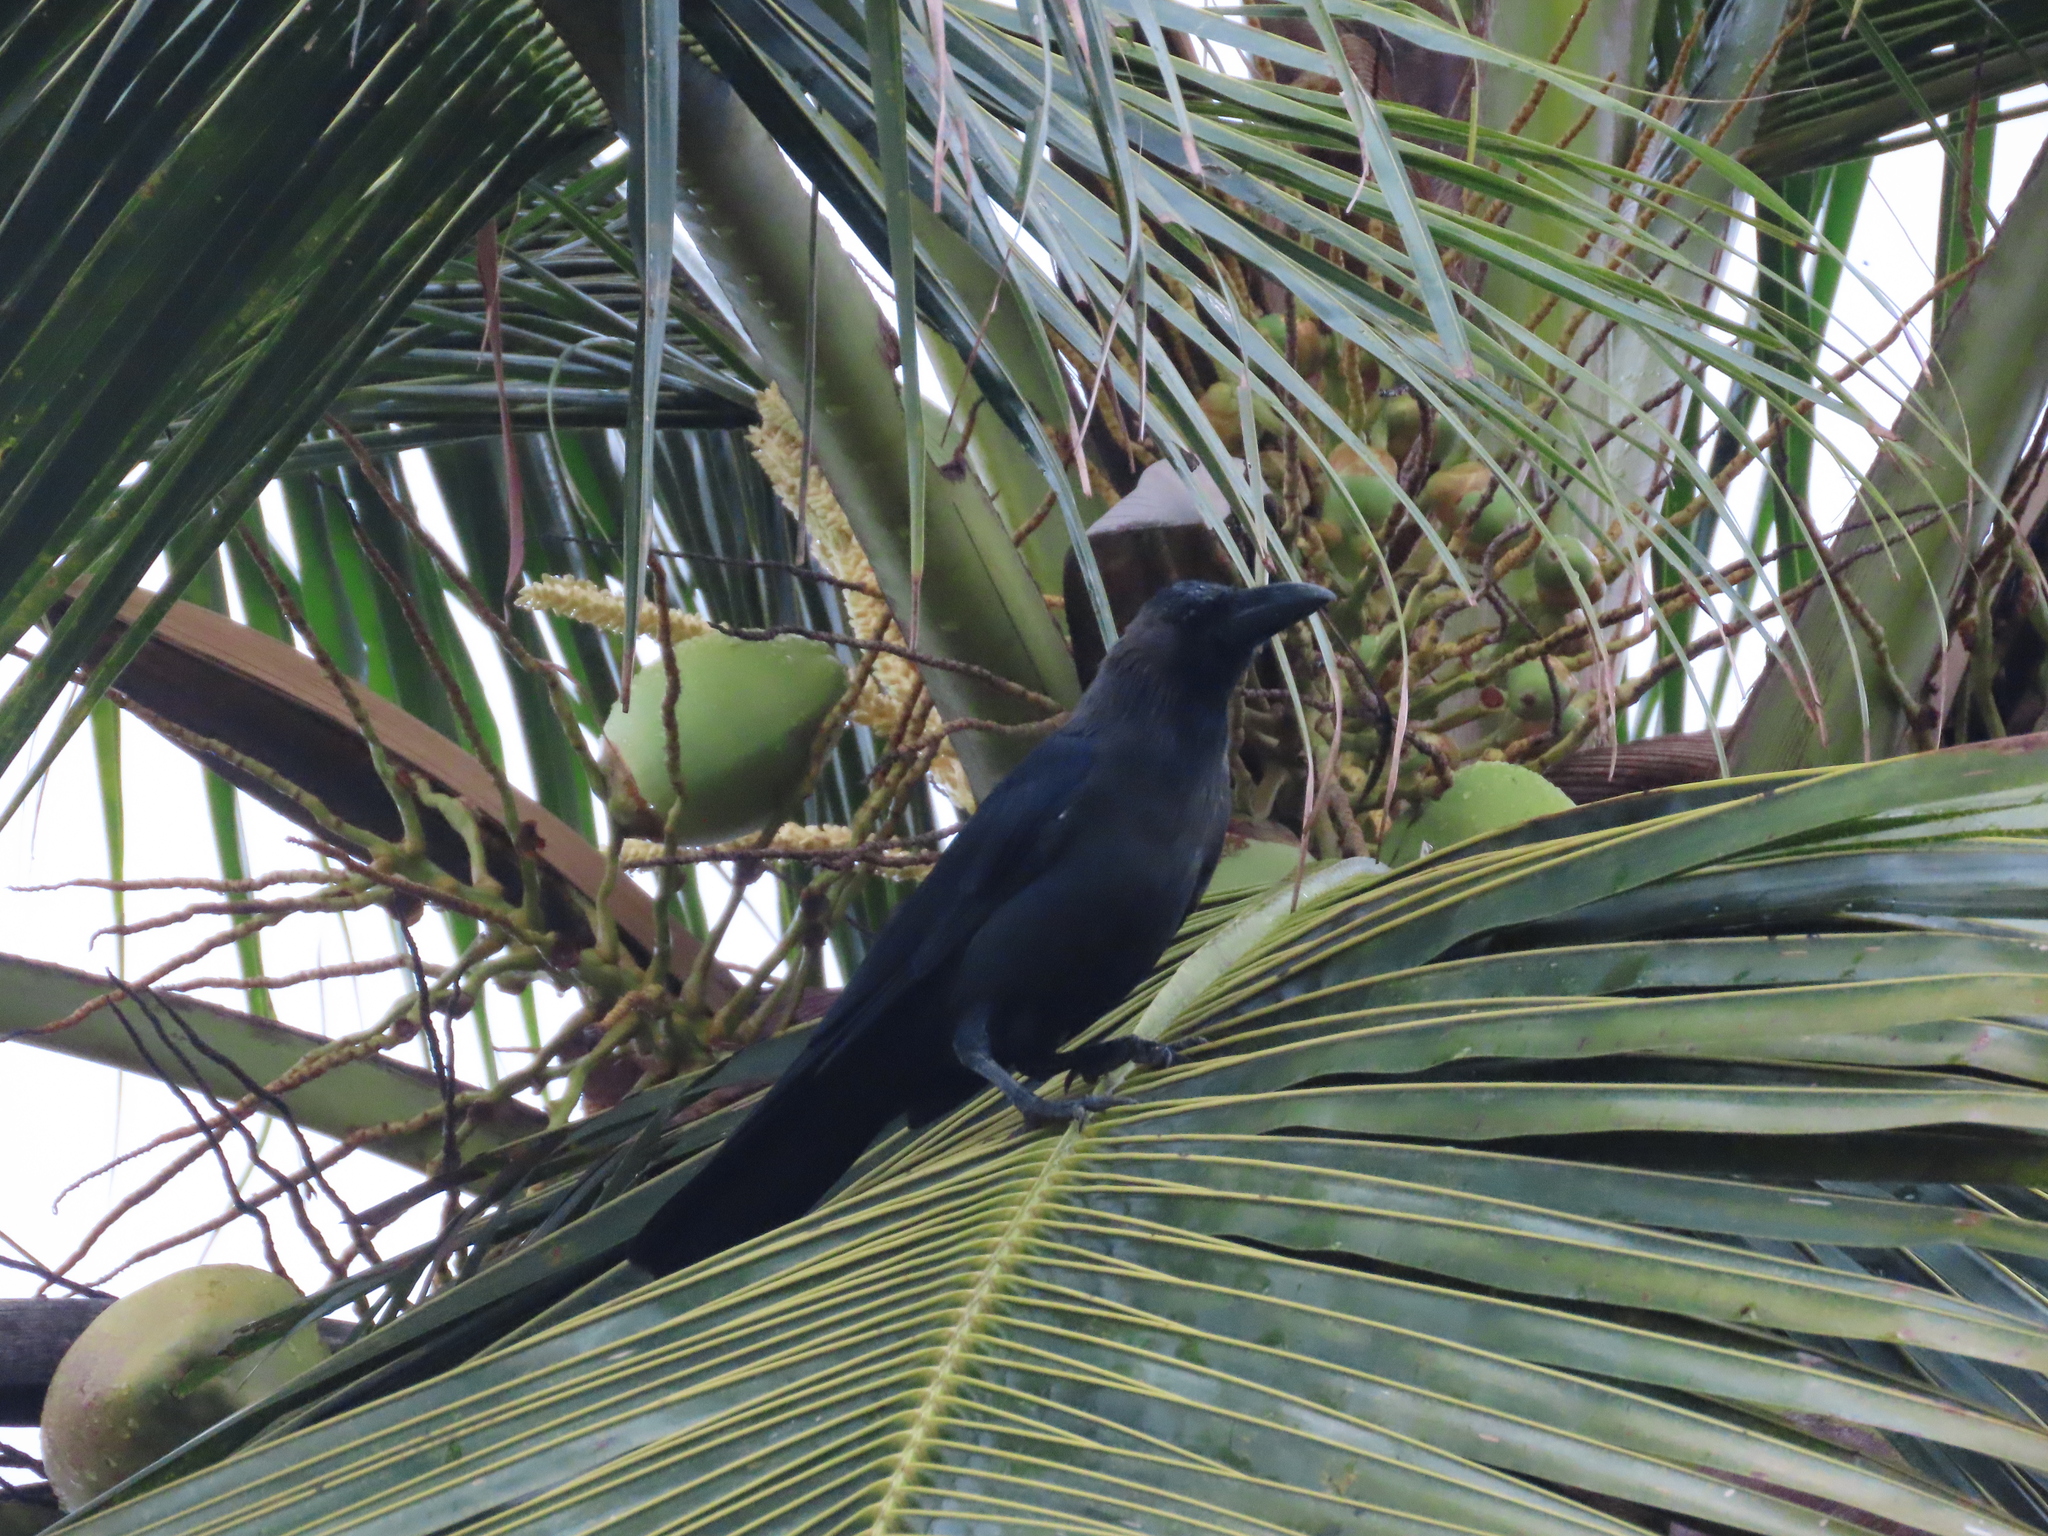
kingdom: Animalia
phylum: Chordata
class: Aves
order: Passeriformes
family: Corvidae
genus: Corvus
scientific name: Corvus splendens
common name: House crow
